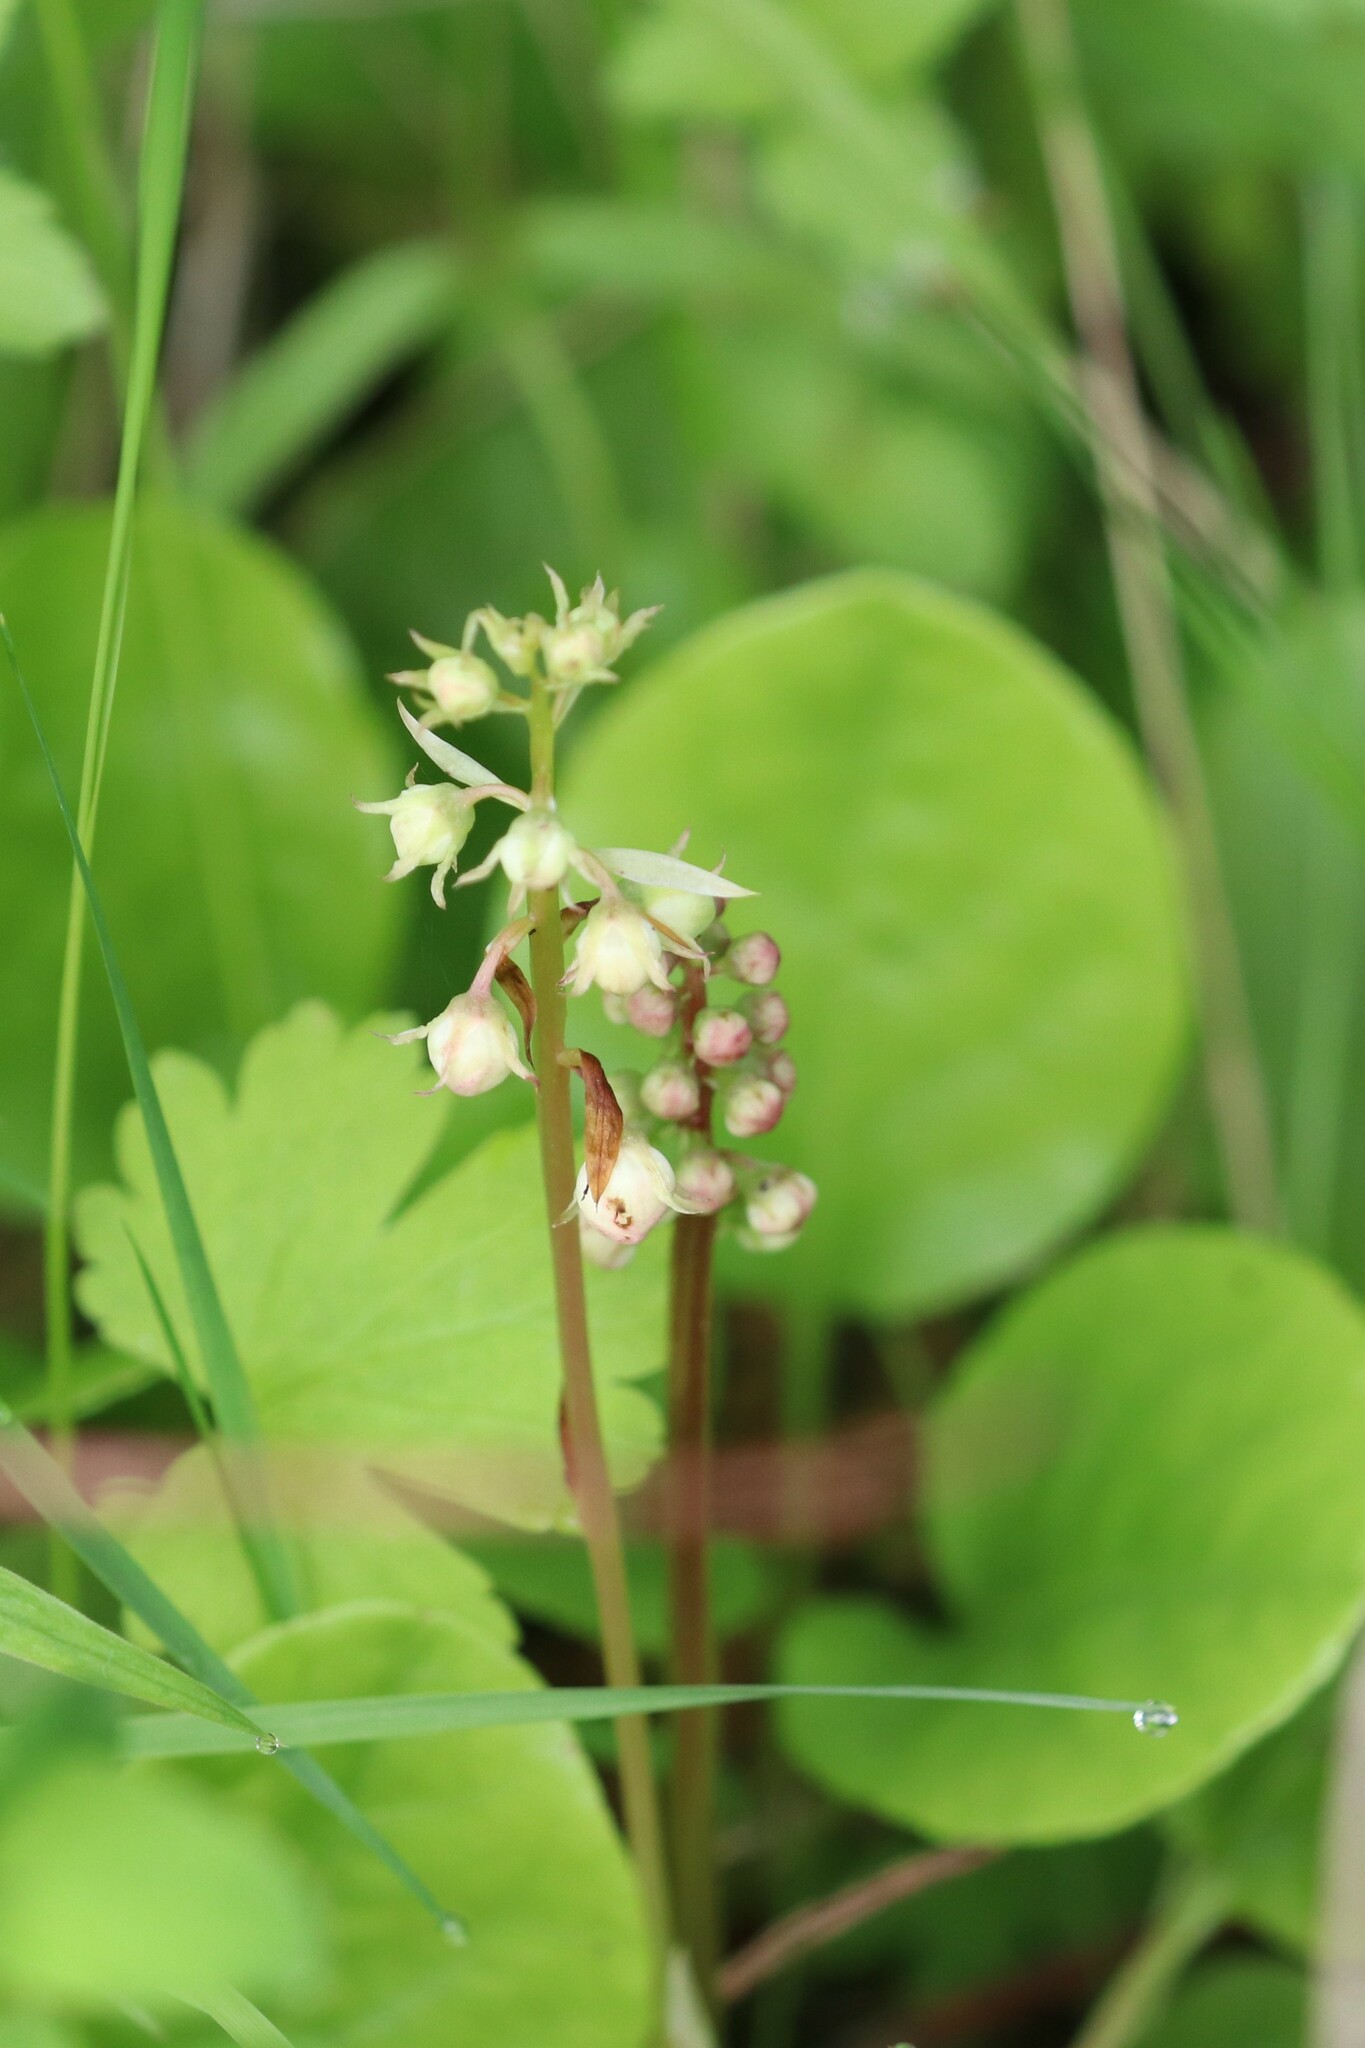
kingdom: Plantae
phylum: Tracheophyta
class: Magnoliopsida
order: Ericales
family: Ericaceae
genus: Pyrola
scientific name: Pyrola rotundifolia
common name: Round-leaved wintergreen
